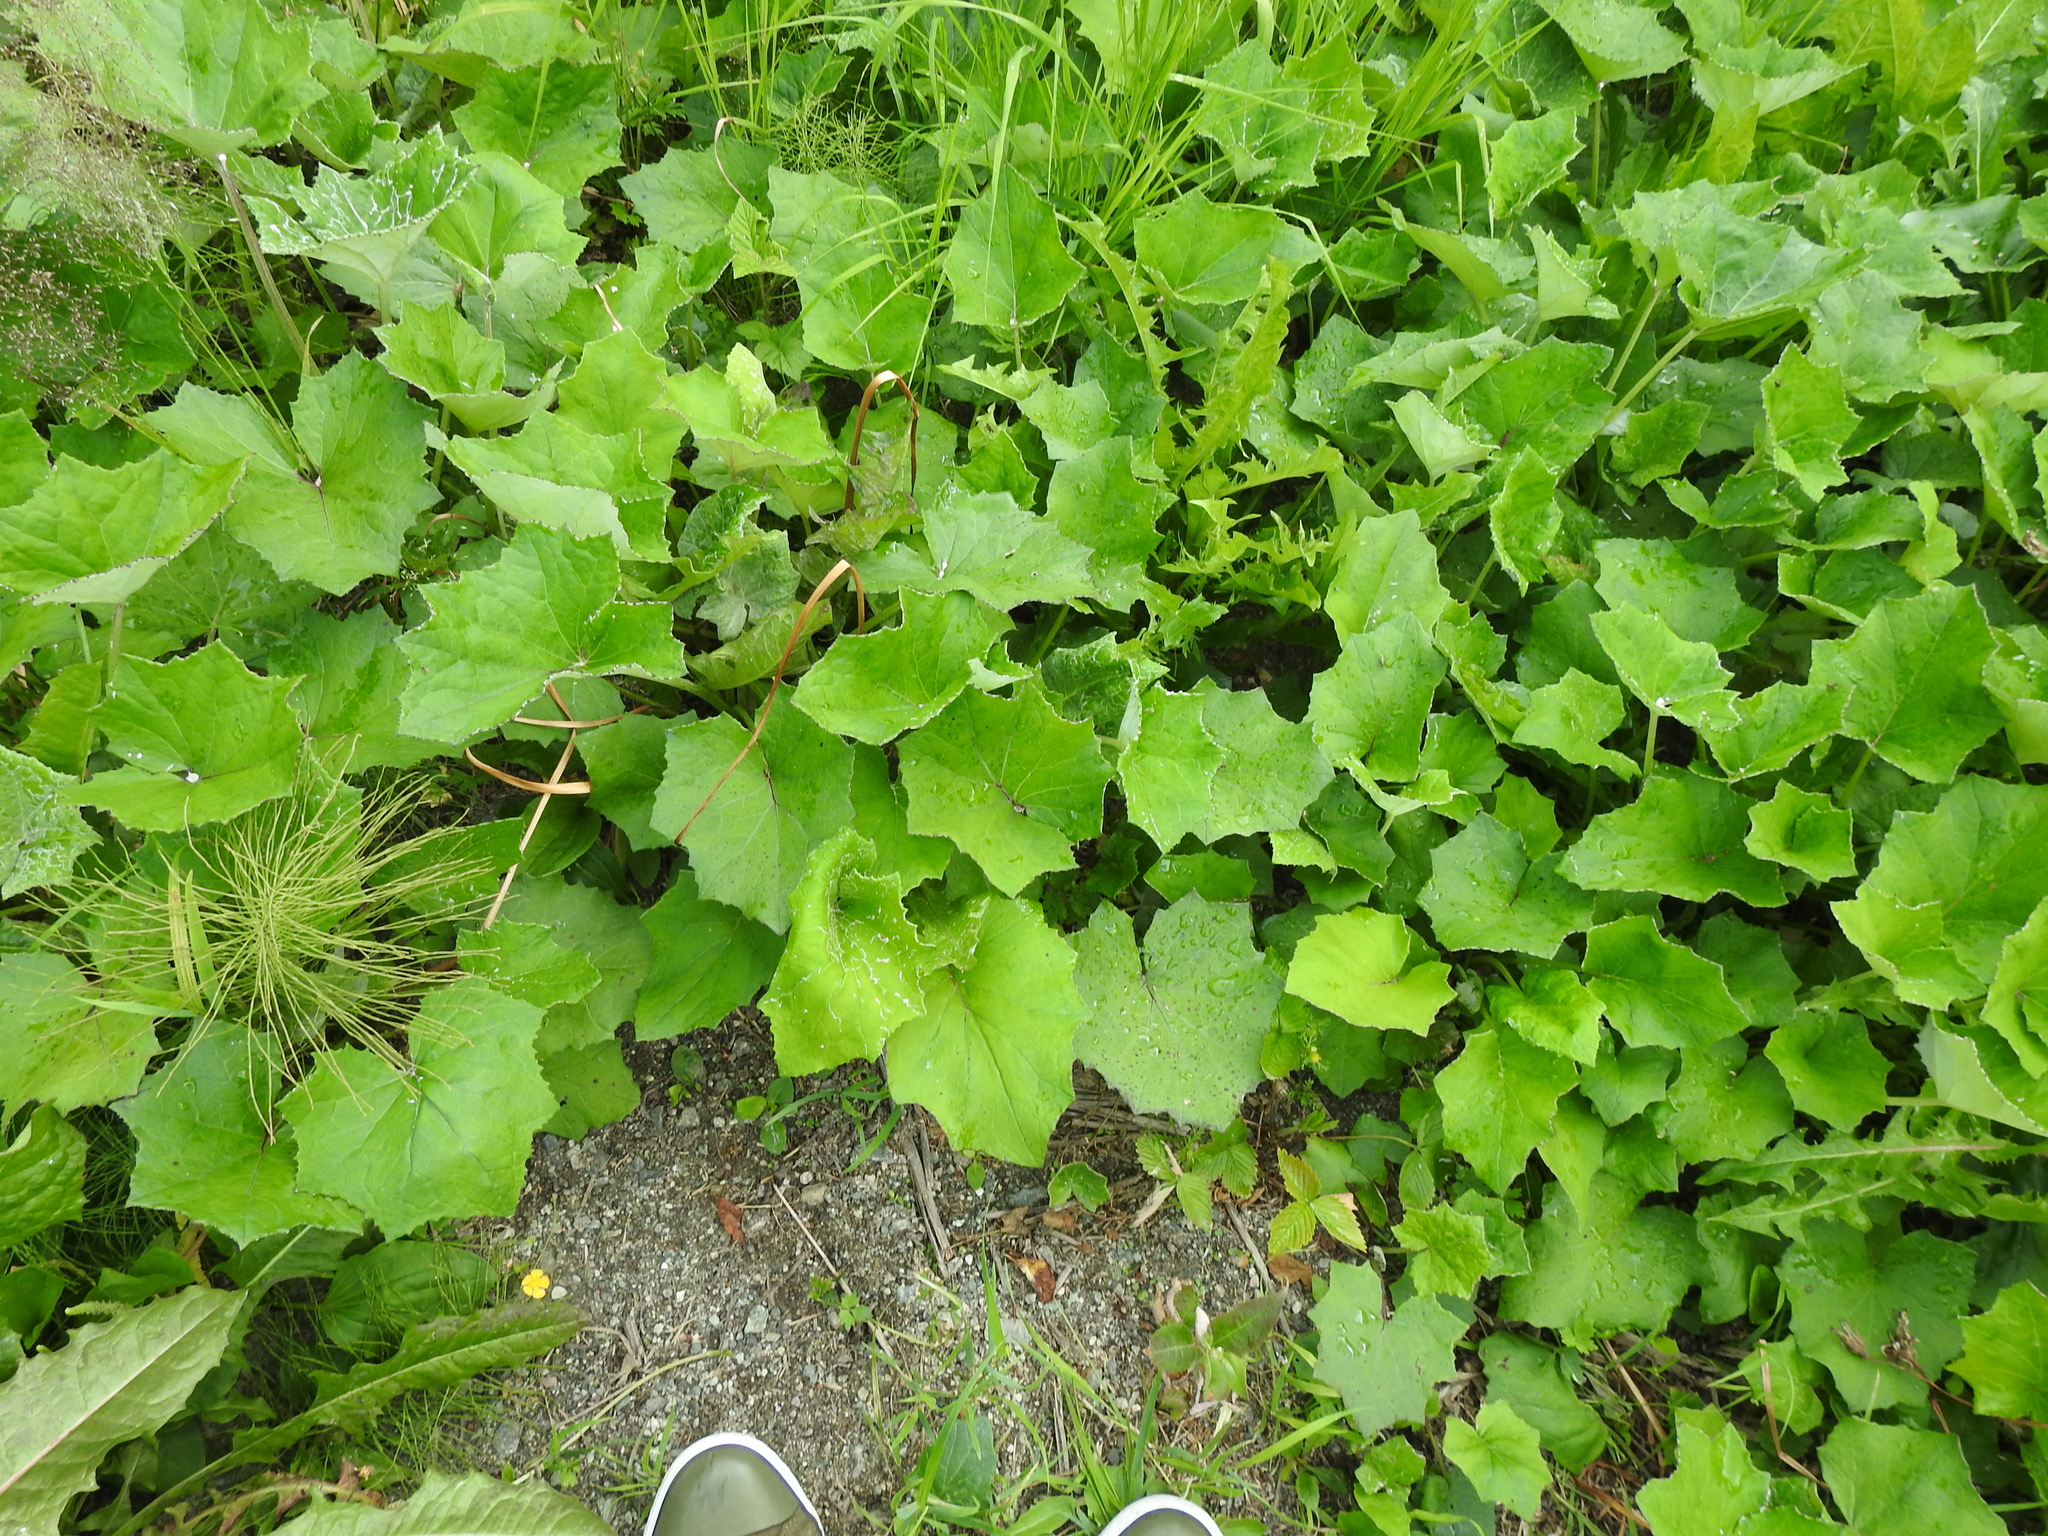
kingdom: Plantae
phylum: Tracheophyta
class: Magnoliopsida
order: Asterales
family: Asteraceae
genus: Tussilago
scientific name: Tussilago farfara
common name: Coltsfoot
